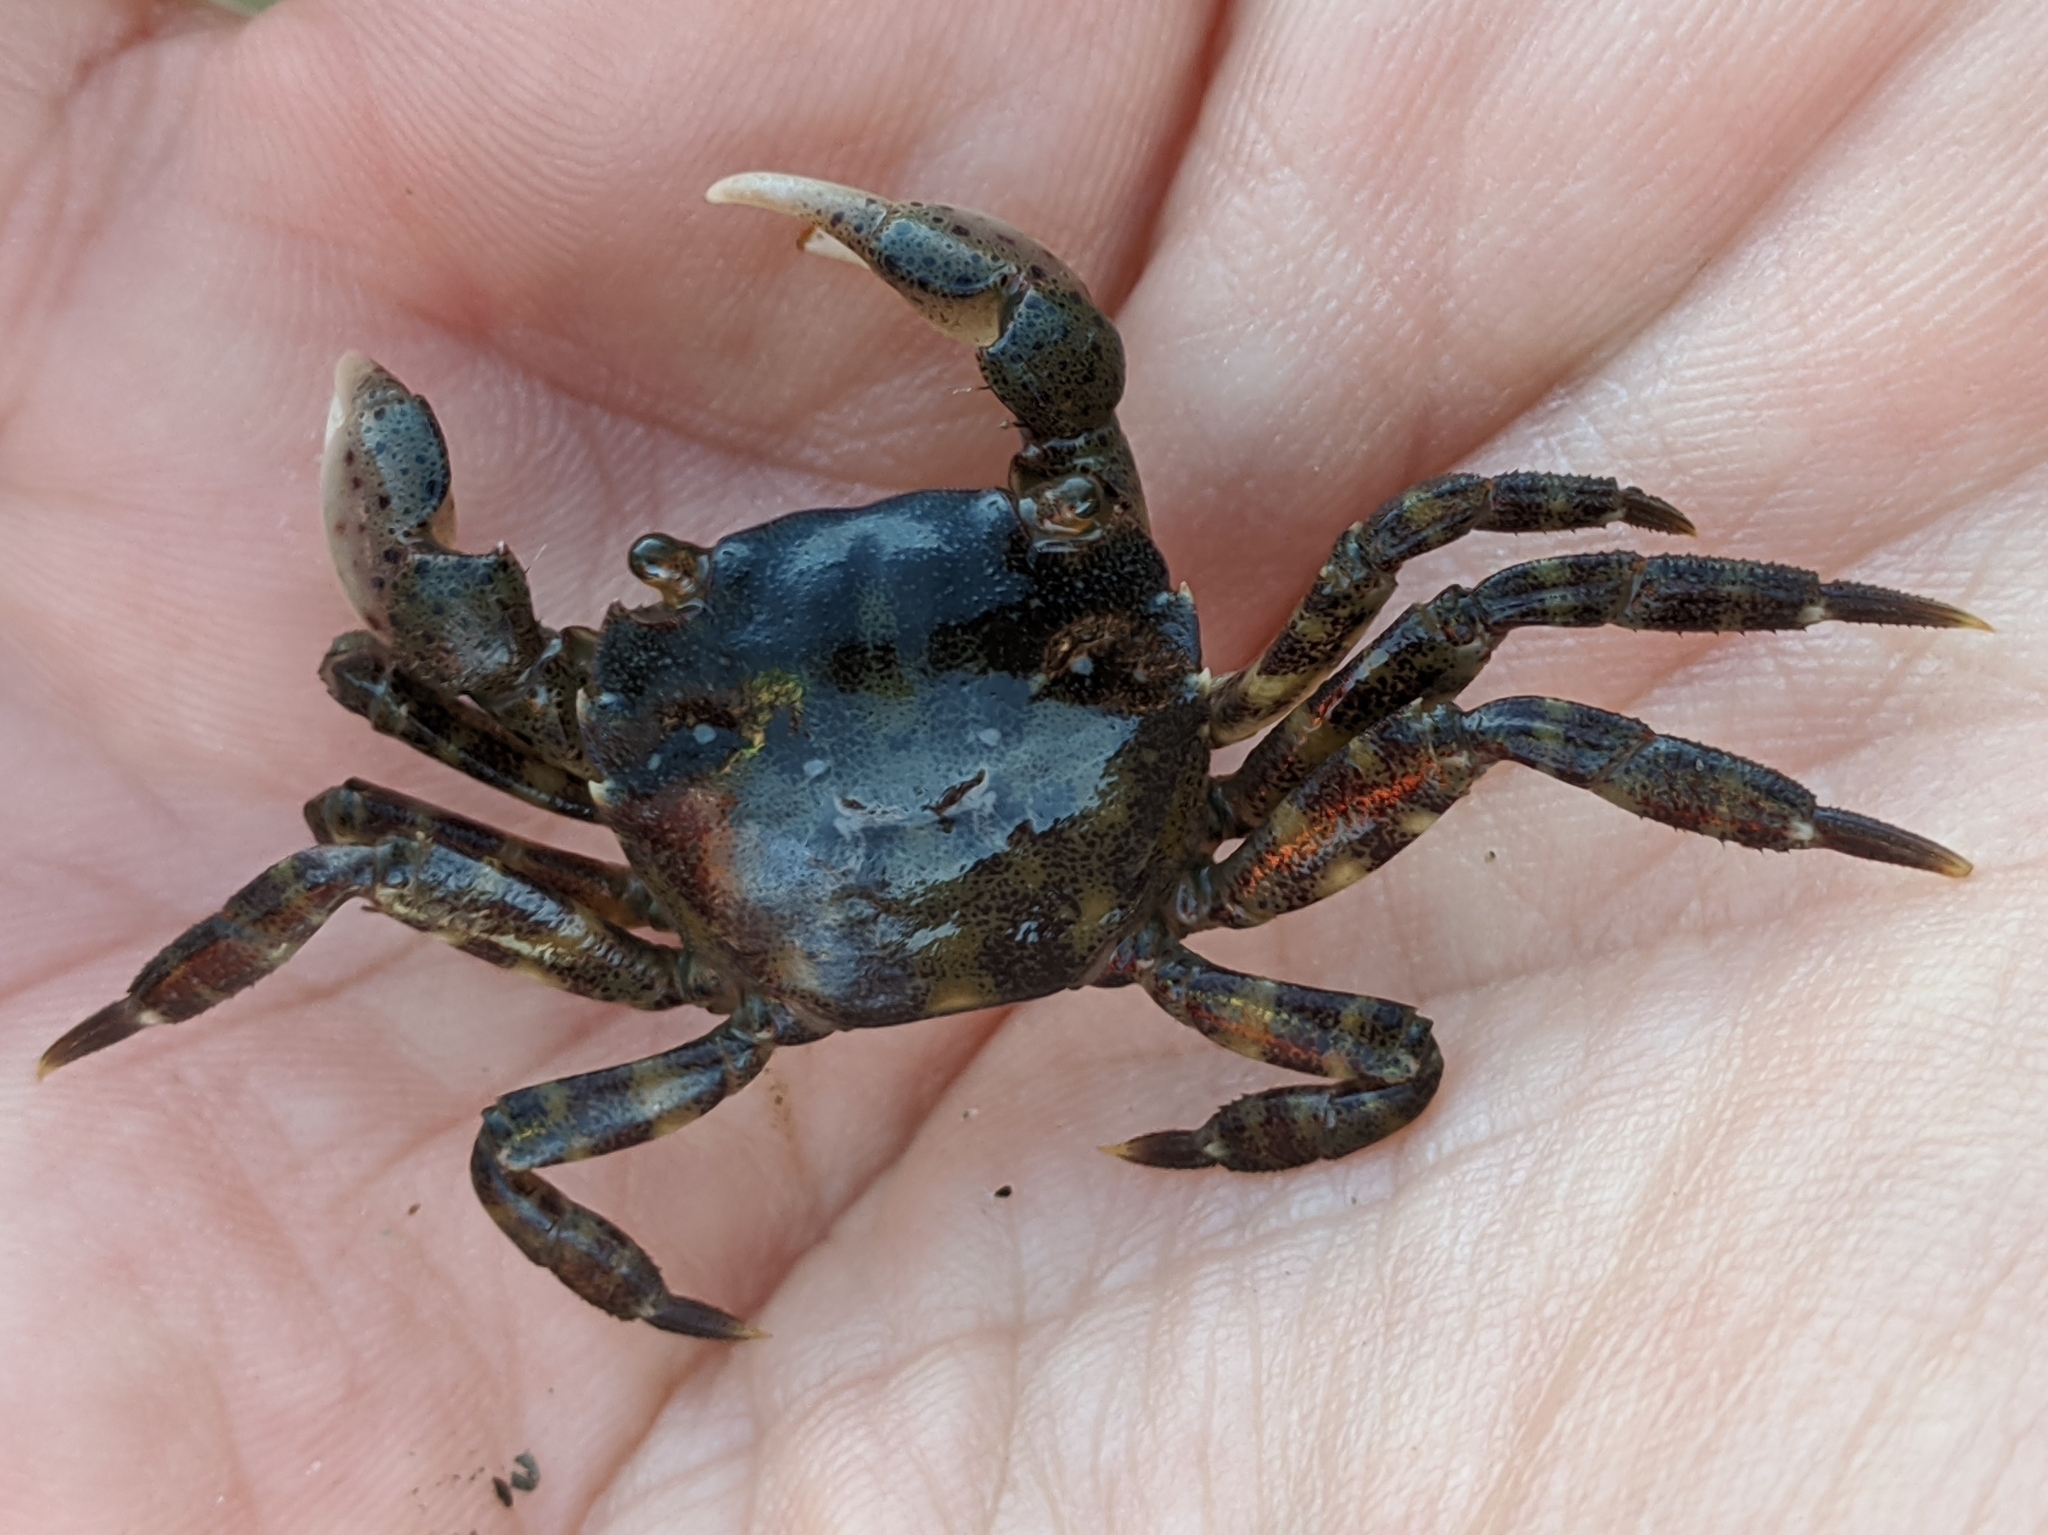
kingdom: Animalia
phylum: Arthropoda
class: Malacostraca
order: Decapoda
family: Varunidae
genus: Hemigrapsus
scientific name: Hemigrapsus sanguineus
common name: Asian shore crab
